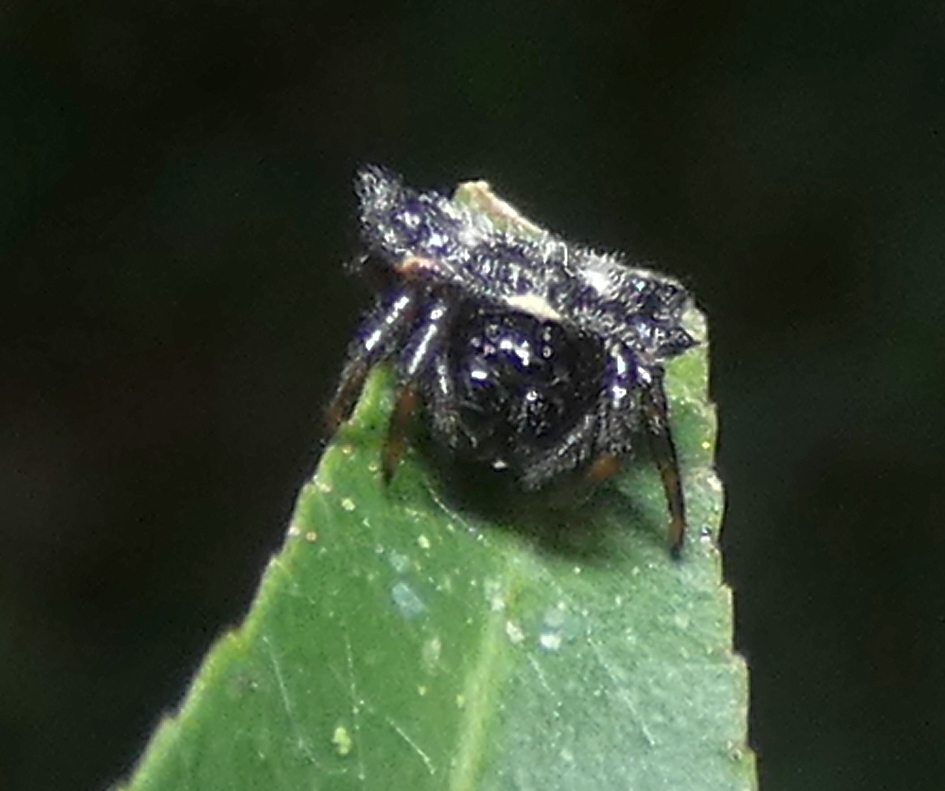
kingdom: Animalia
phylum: Arthropoda
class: Arachnida
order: Araneae
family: Araneidae
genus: Gasteracantha
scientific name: Gasteracantha cancriformis
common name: Orb weavers
